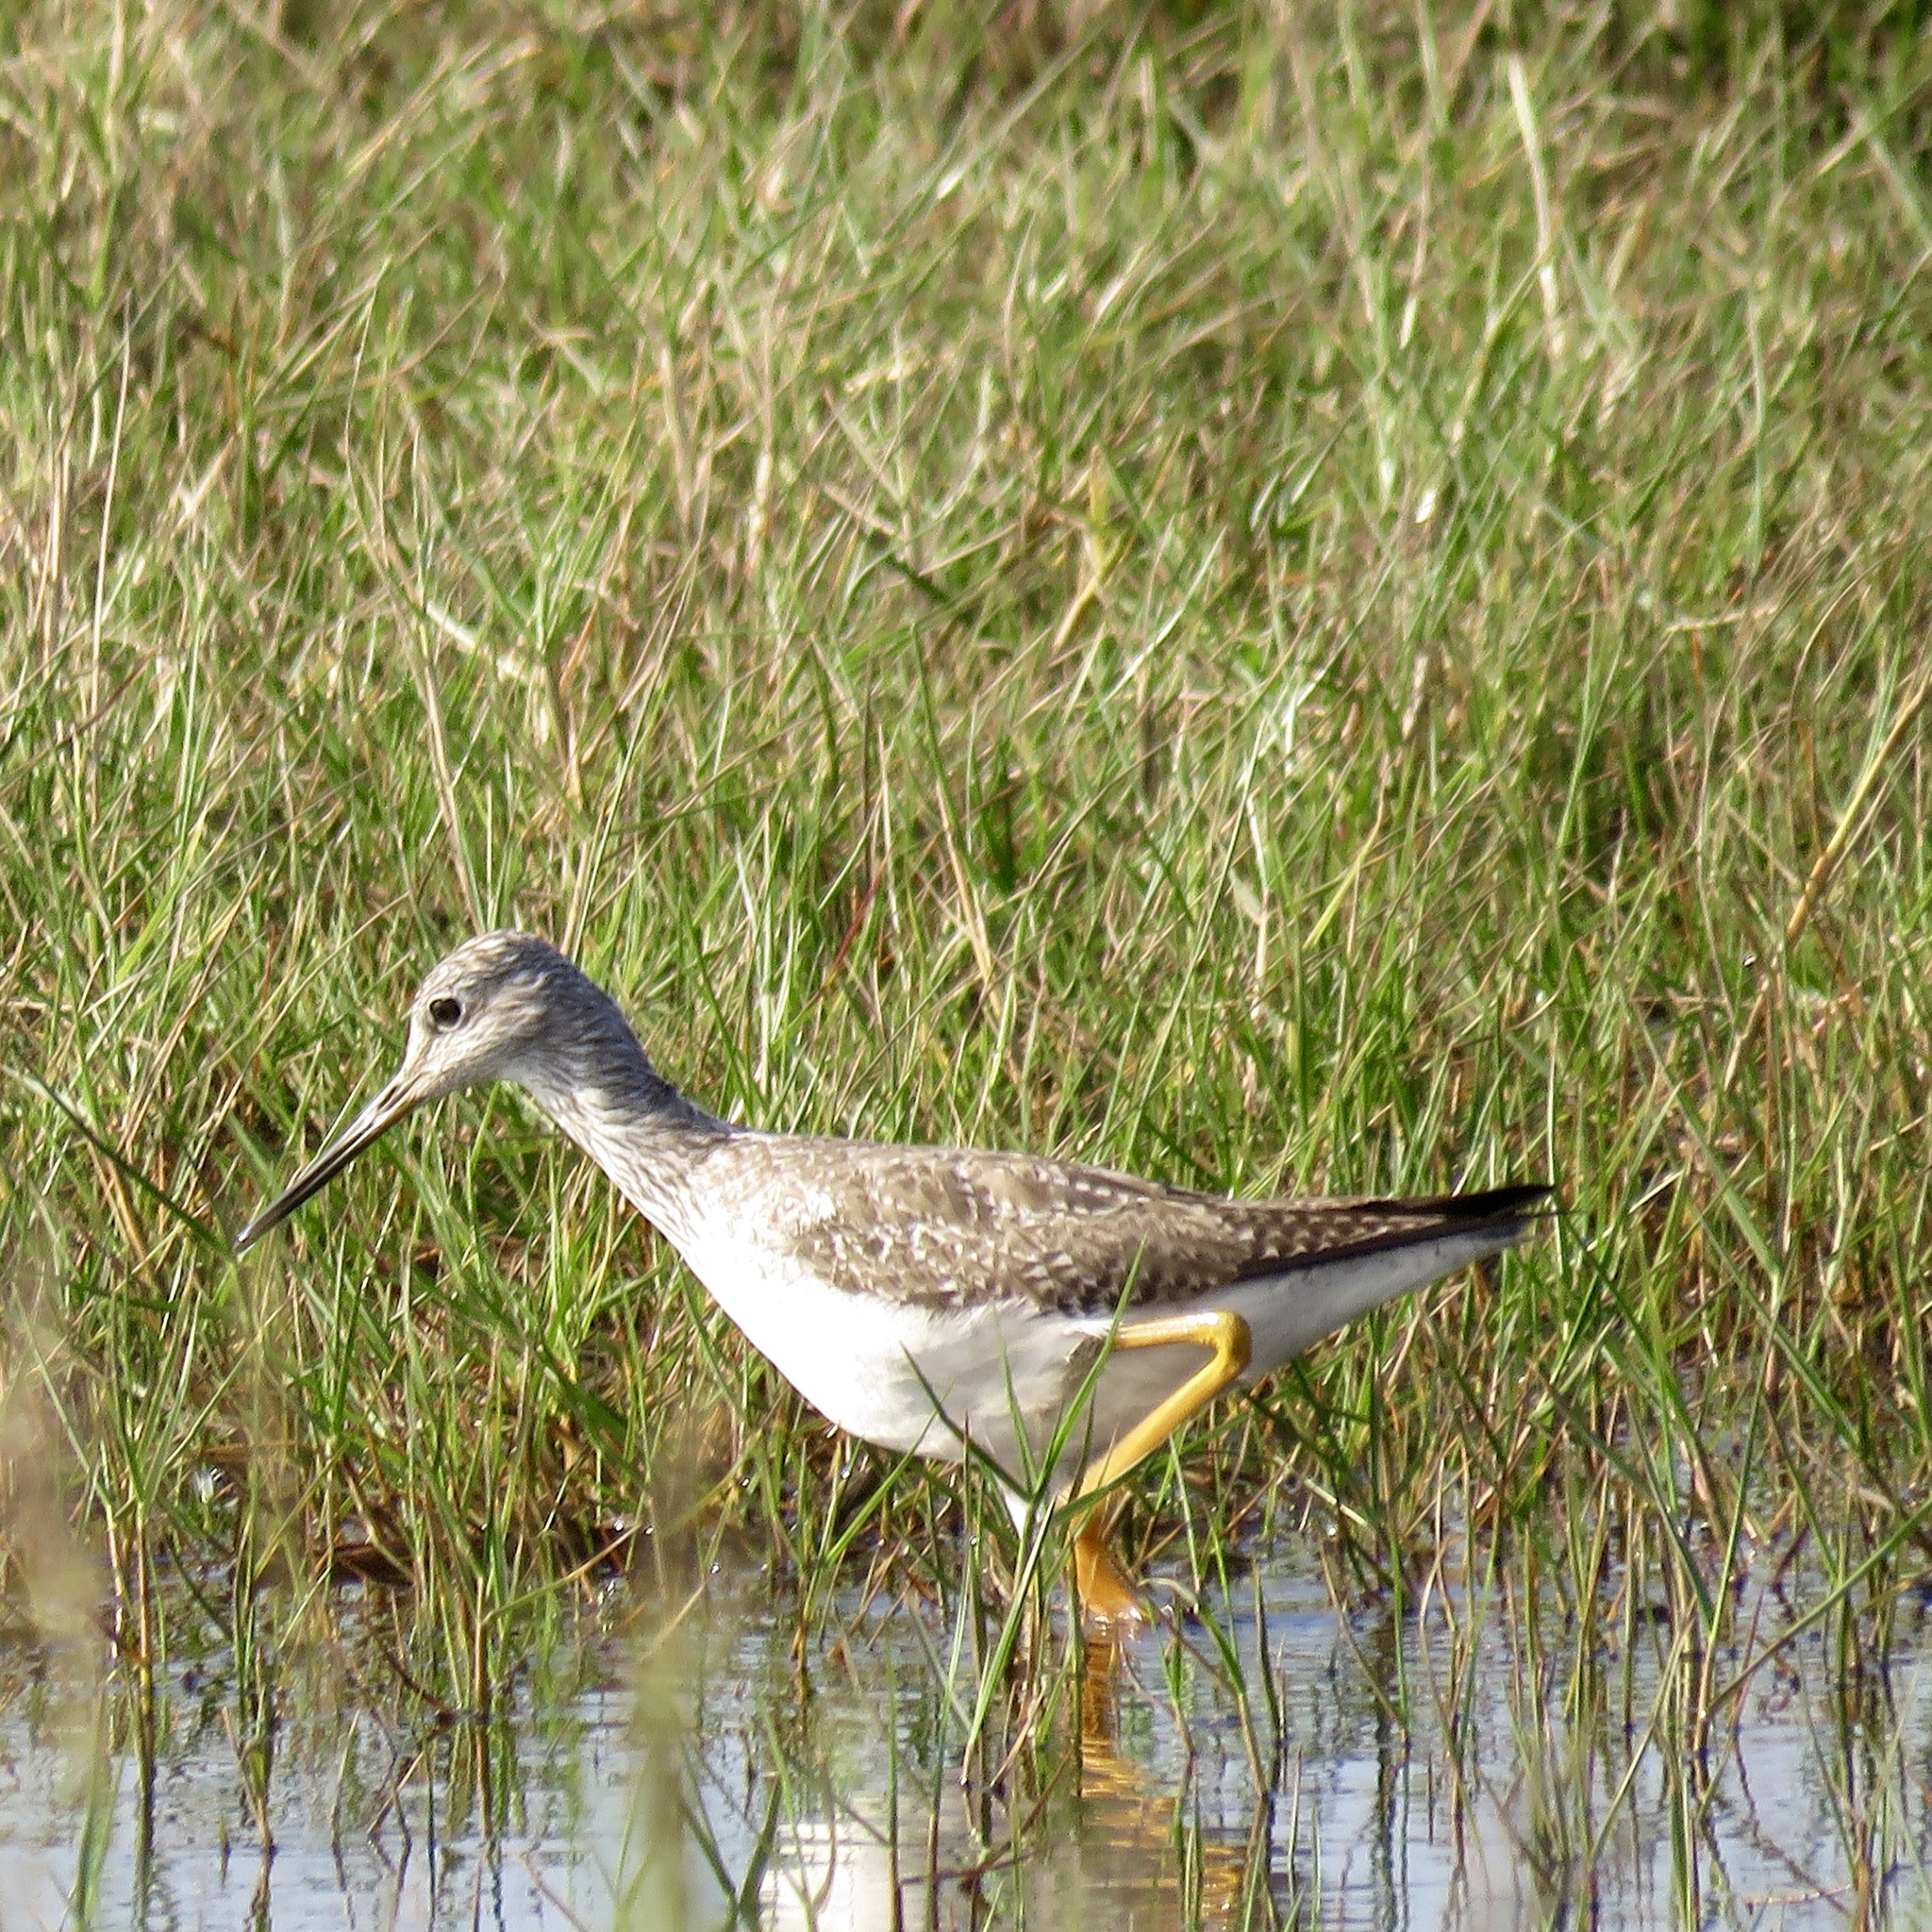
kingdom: Animalia
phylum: Chordata
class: Aves
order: Charadriiformes
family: Scolopacidae
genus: Tringa
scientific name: Tringa melanoleuca
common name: Greater yellowlegs
